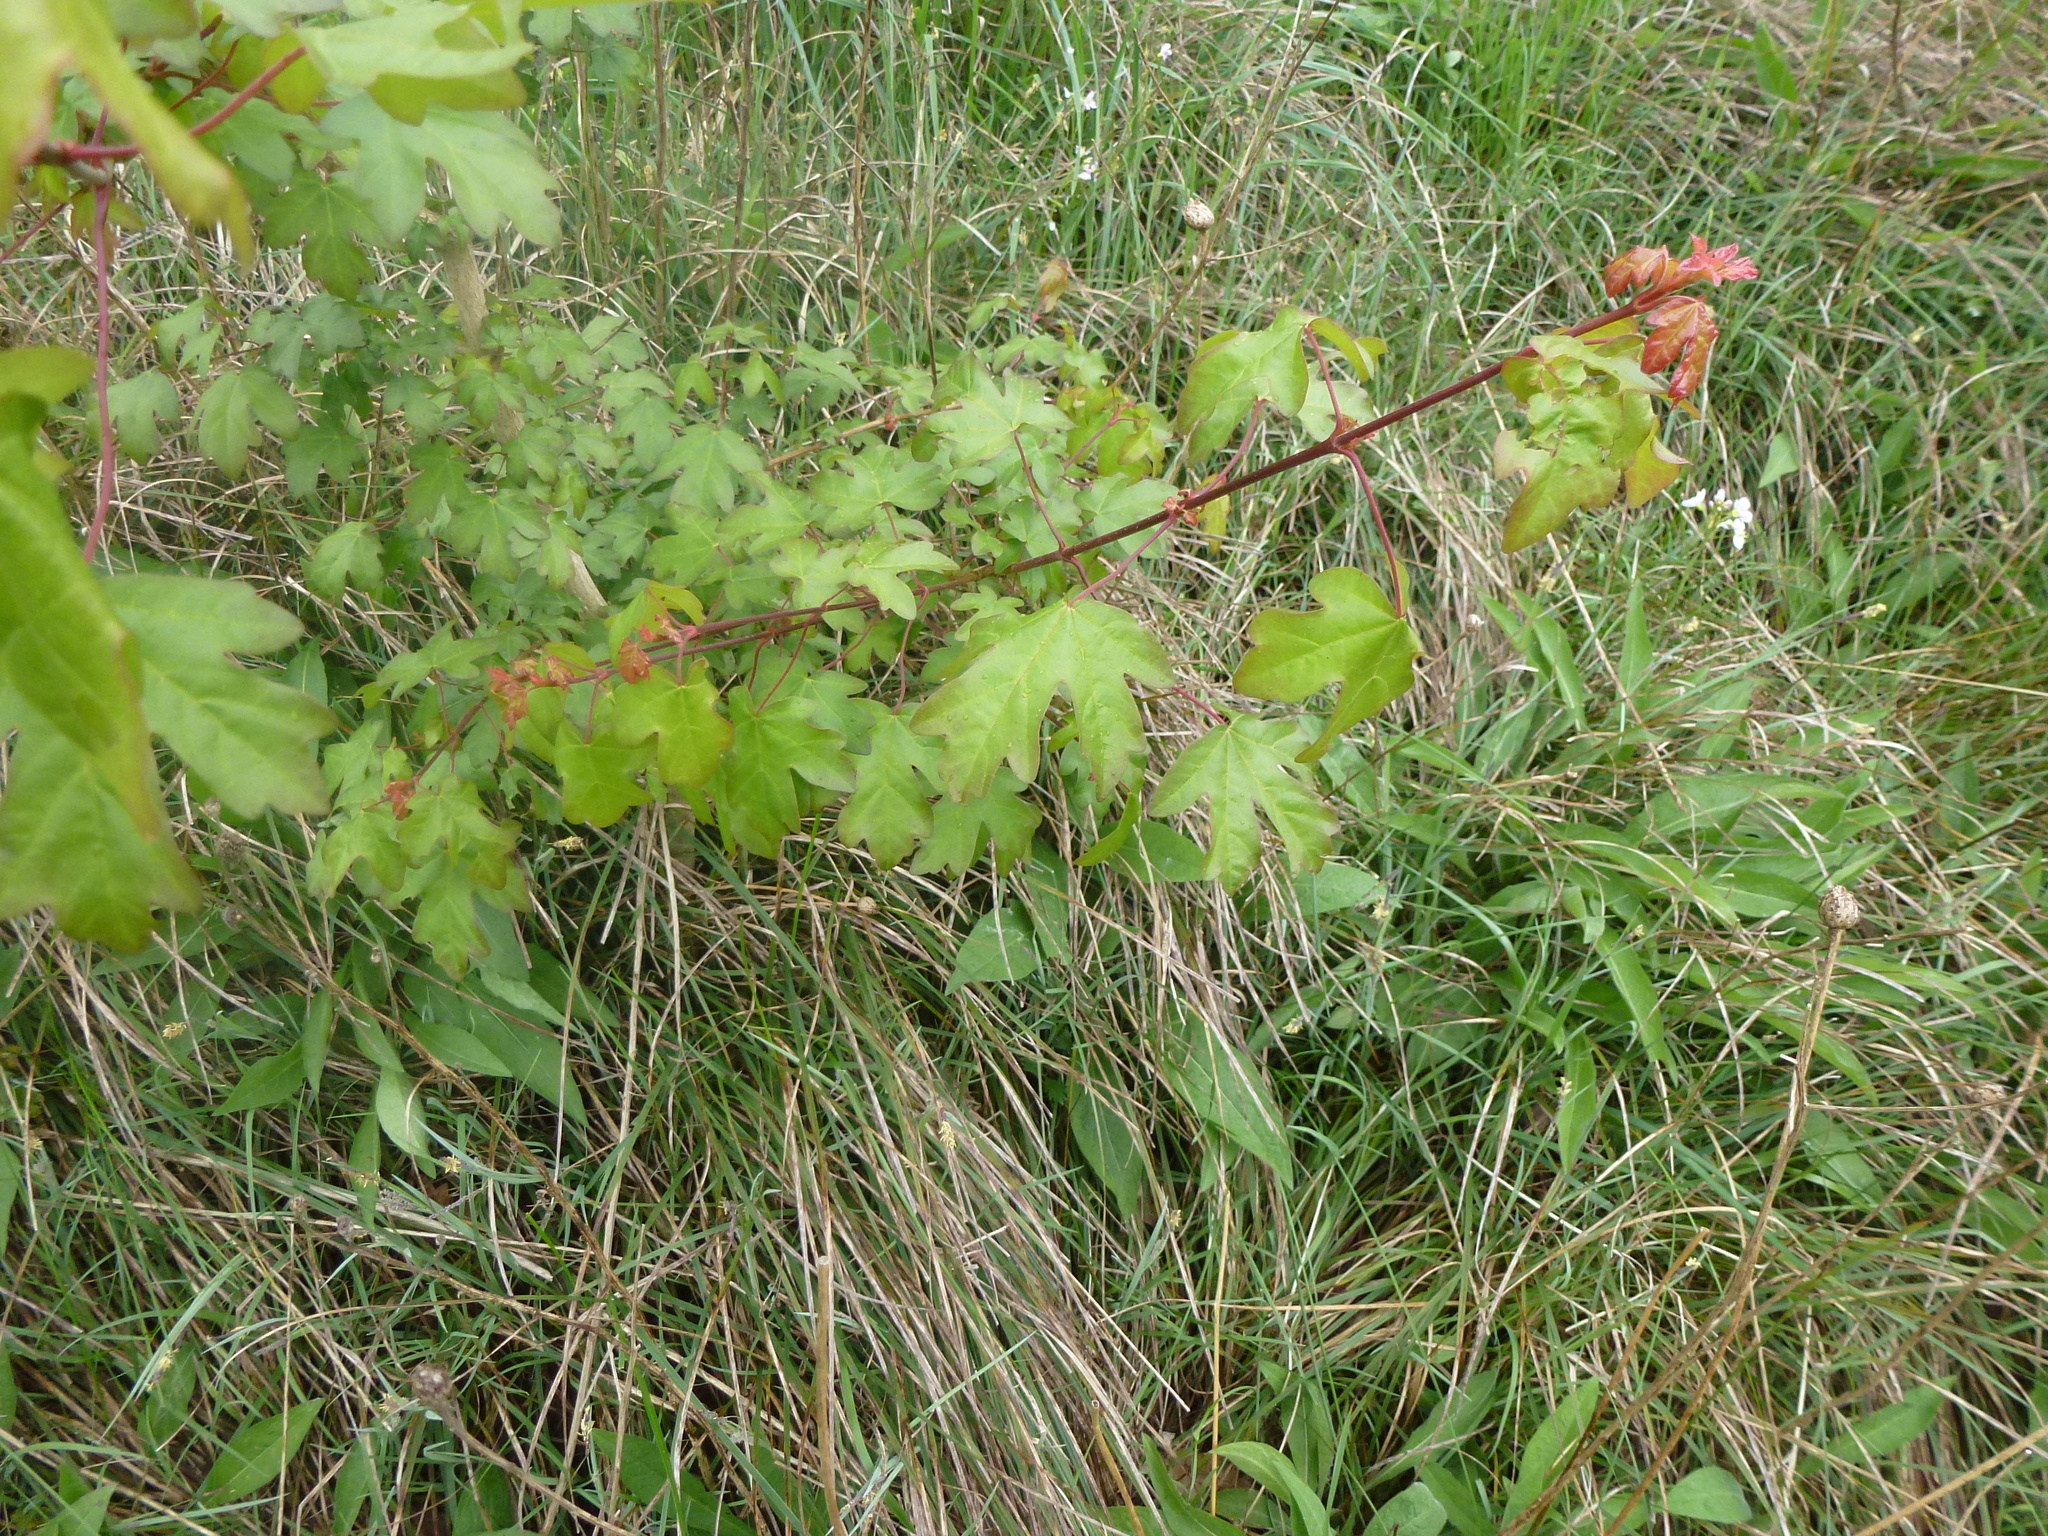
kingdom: Plantae
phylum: Tracheophyta
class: Magnoliopsida
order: Sapindales
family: Sapindaceae
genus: Acer
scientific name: Acer campestre
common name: Field maple
